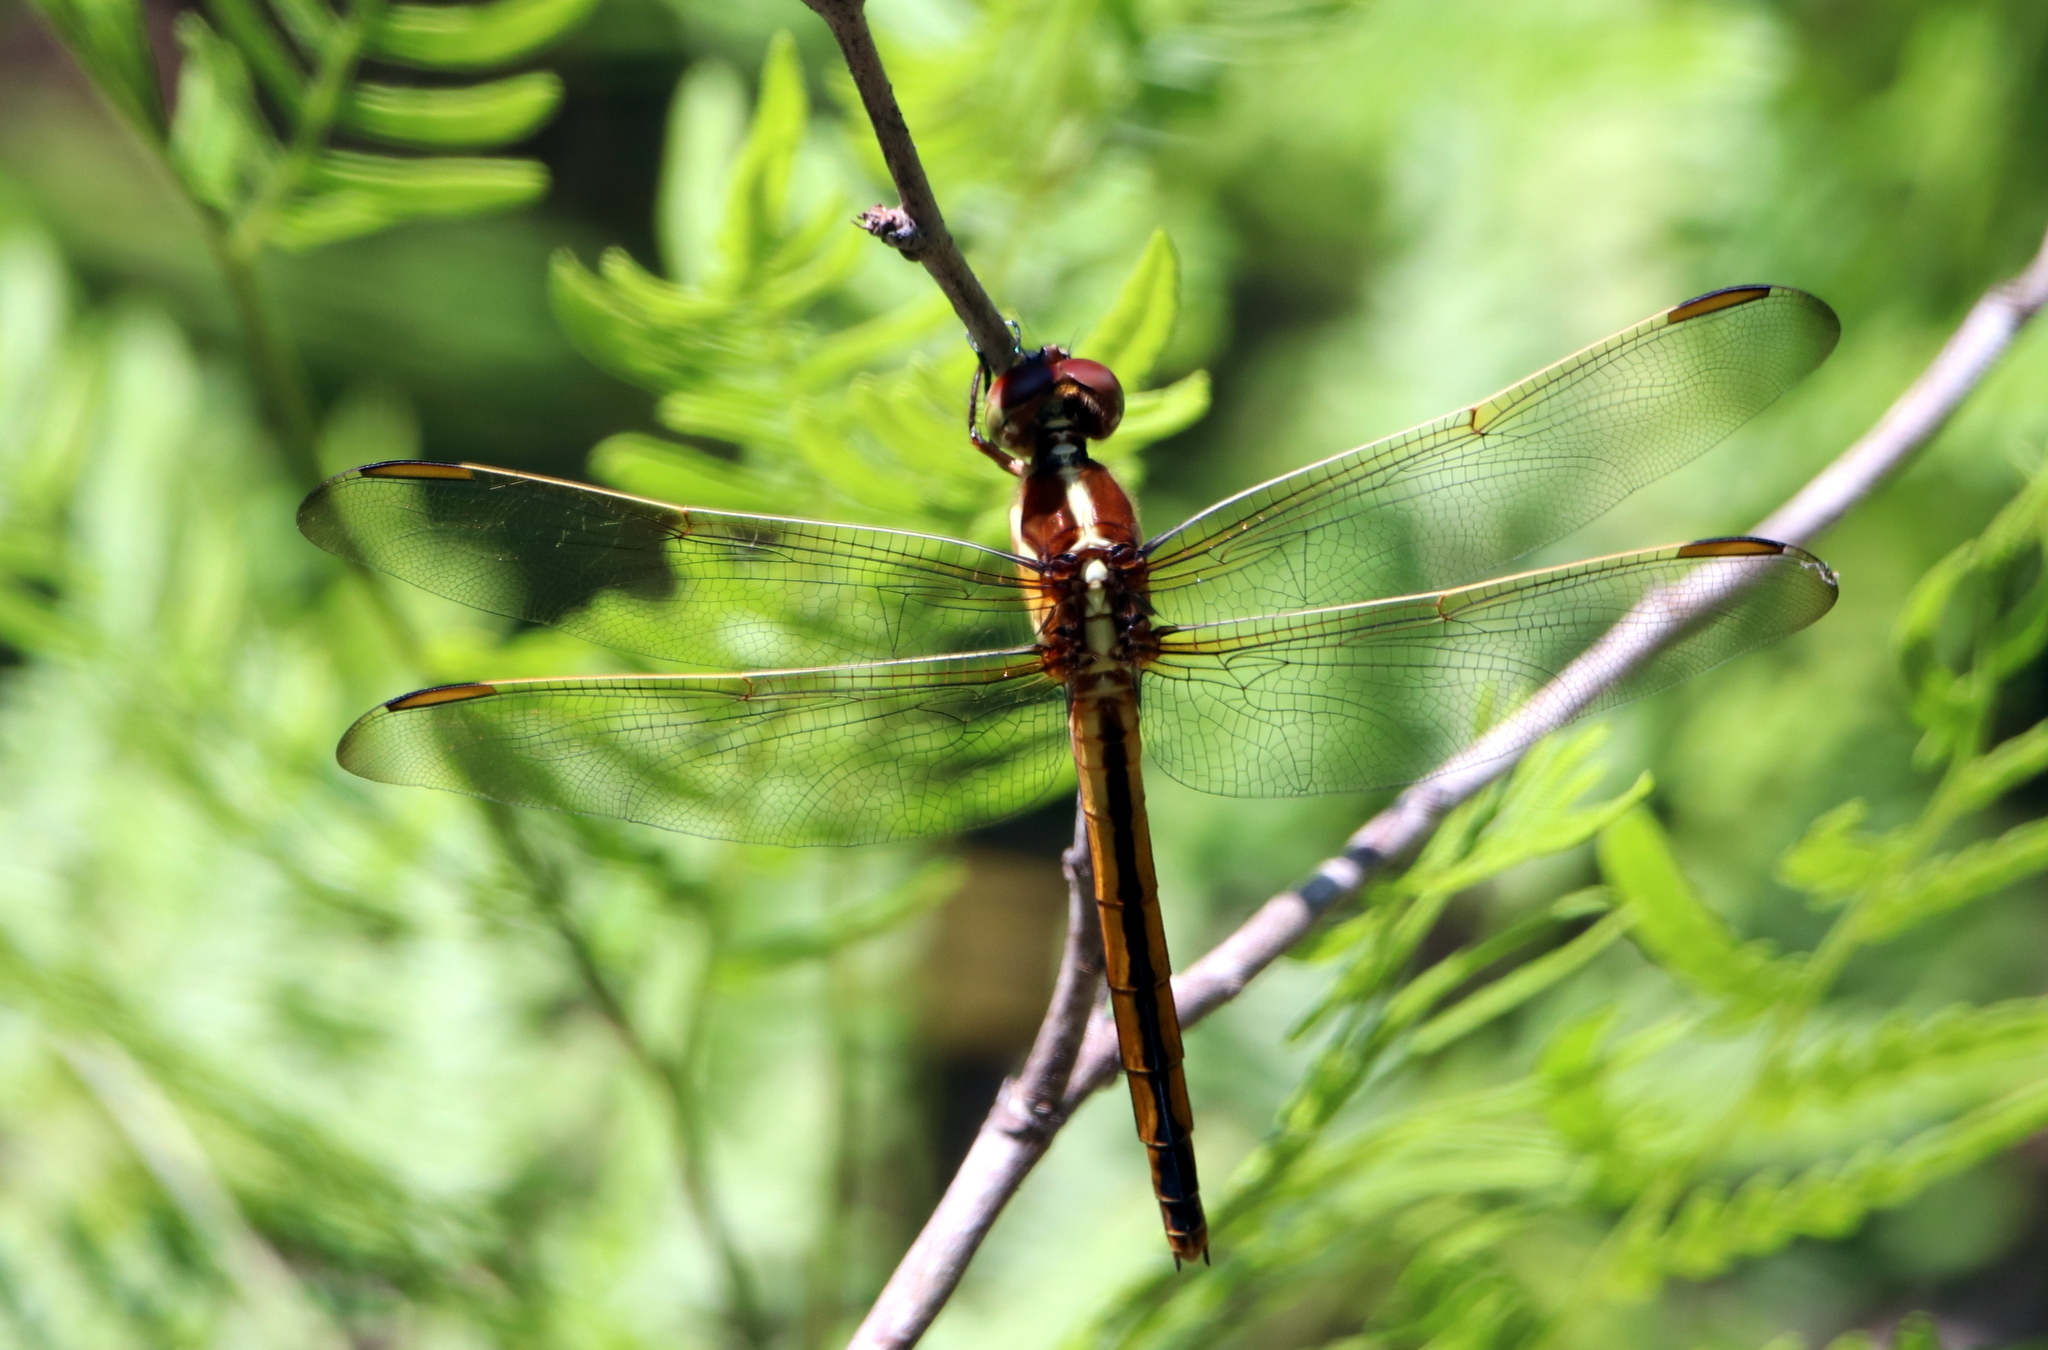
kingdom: Animalia
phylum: Arthropoda
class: Insecta
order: Odonata
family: Libellulidae
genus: Libellula
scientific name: Libellula needhami
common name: Needham's skimmer
